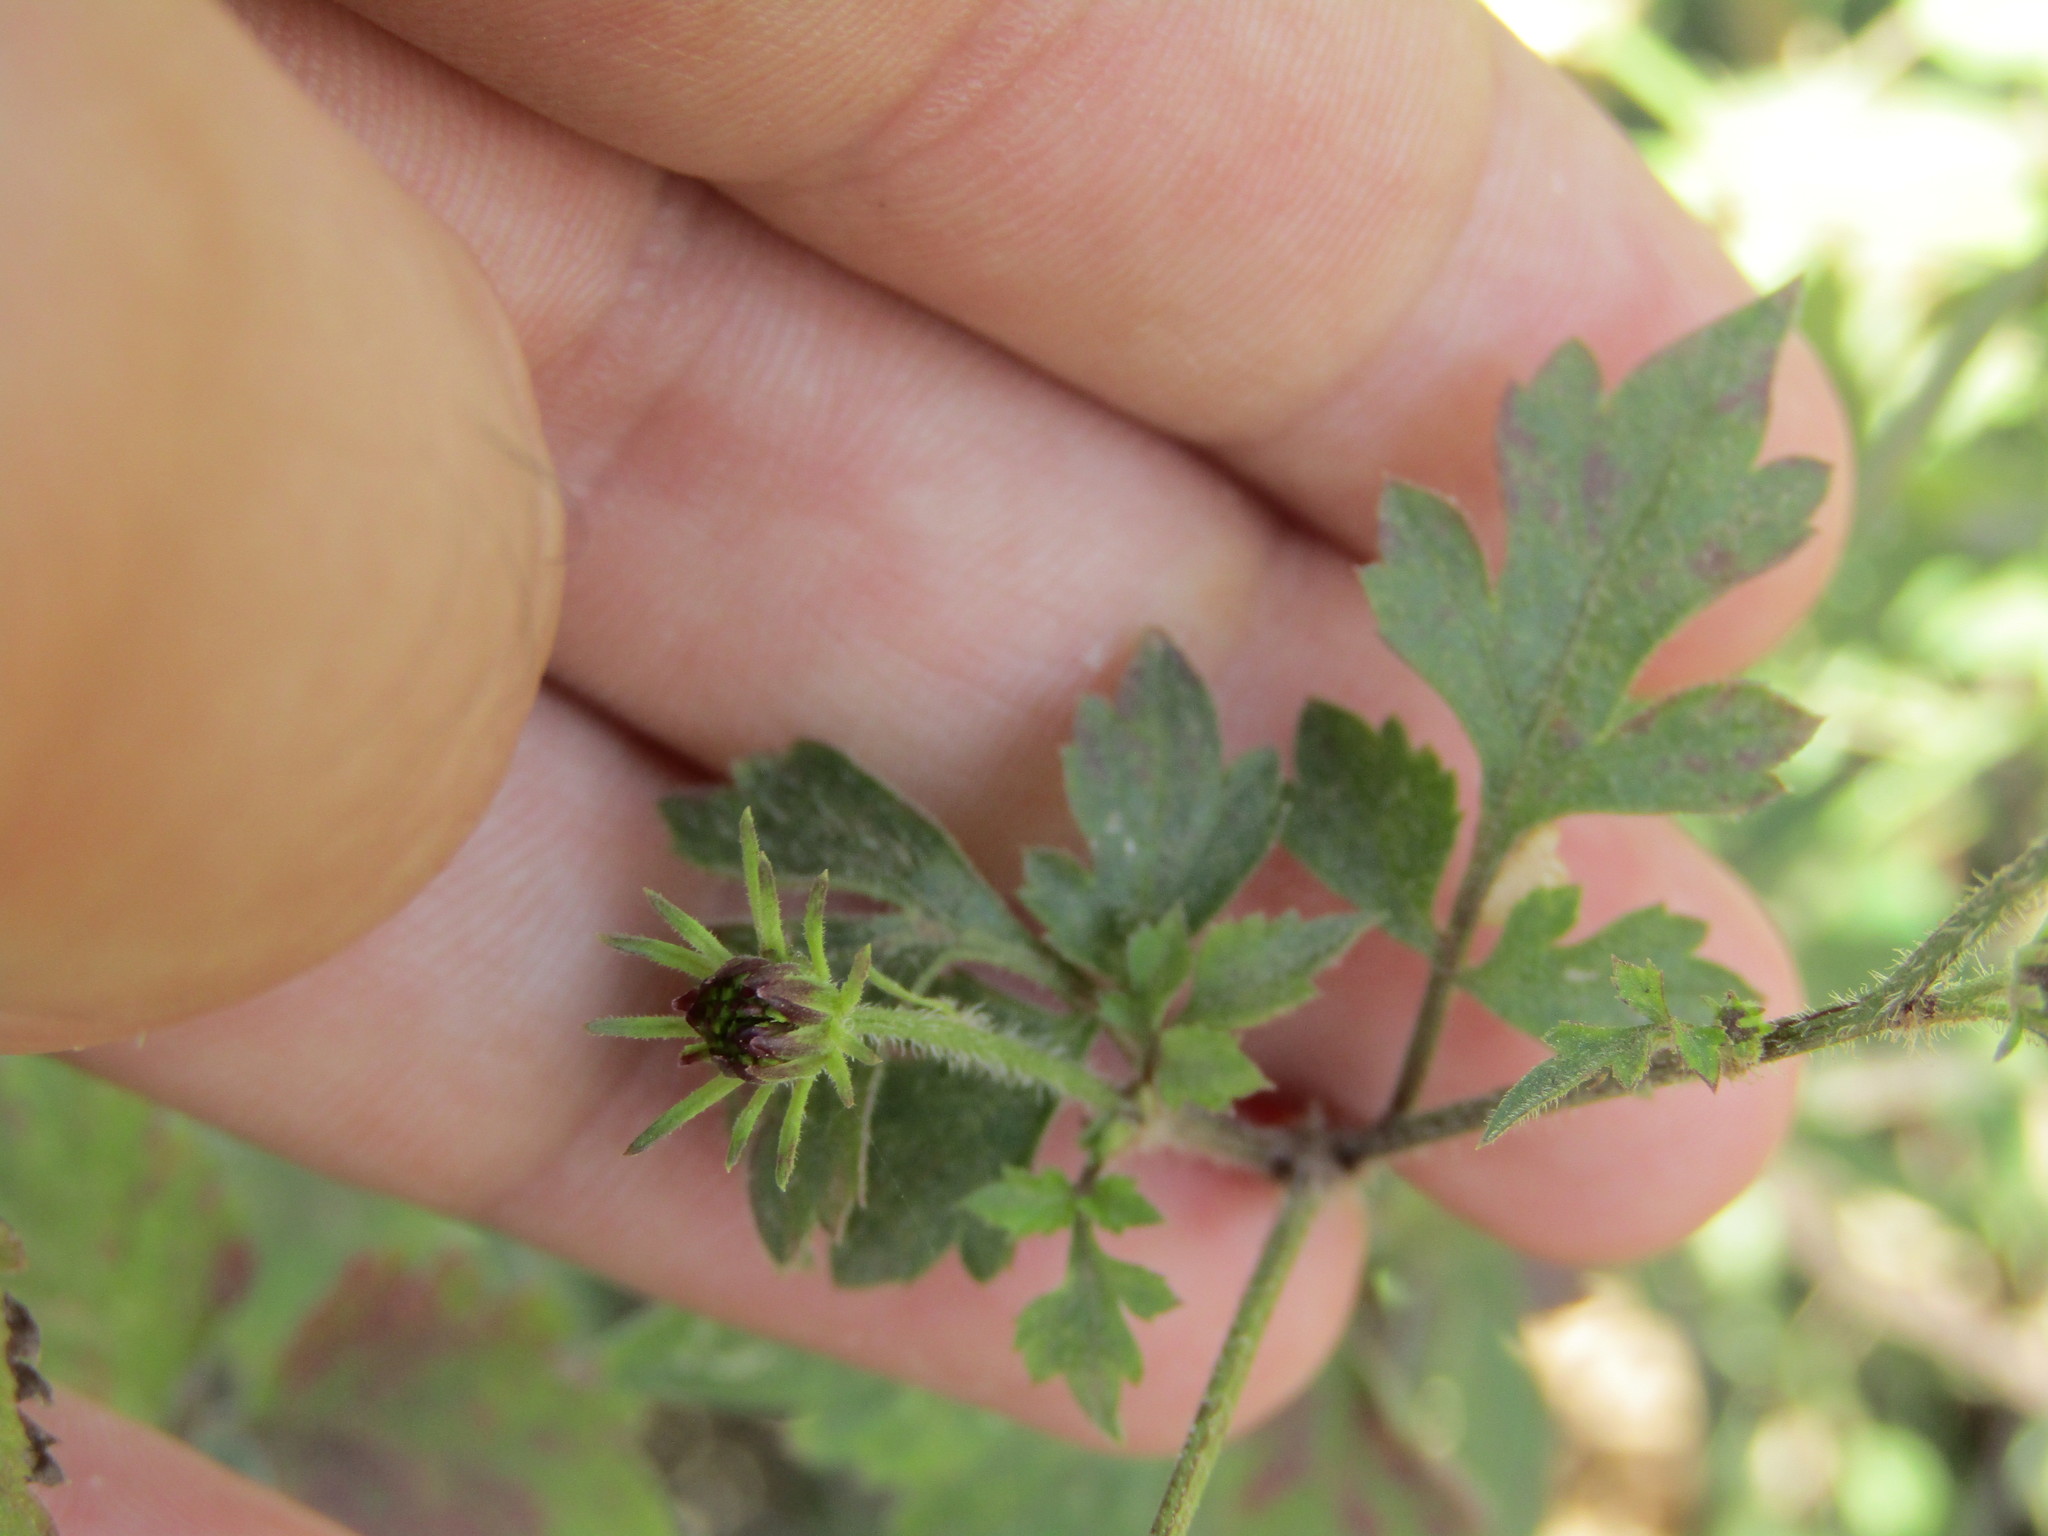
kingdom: Plantae
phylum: Tracheophyta
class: Magnoliopsida
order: Asterales
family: Asteraceae
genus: Bidens
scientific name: Bidens riparia
